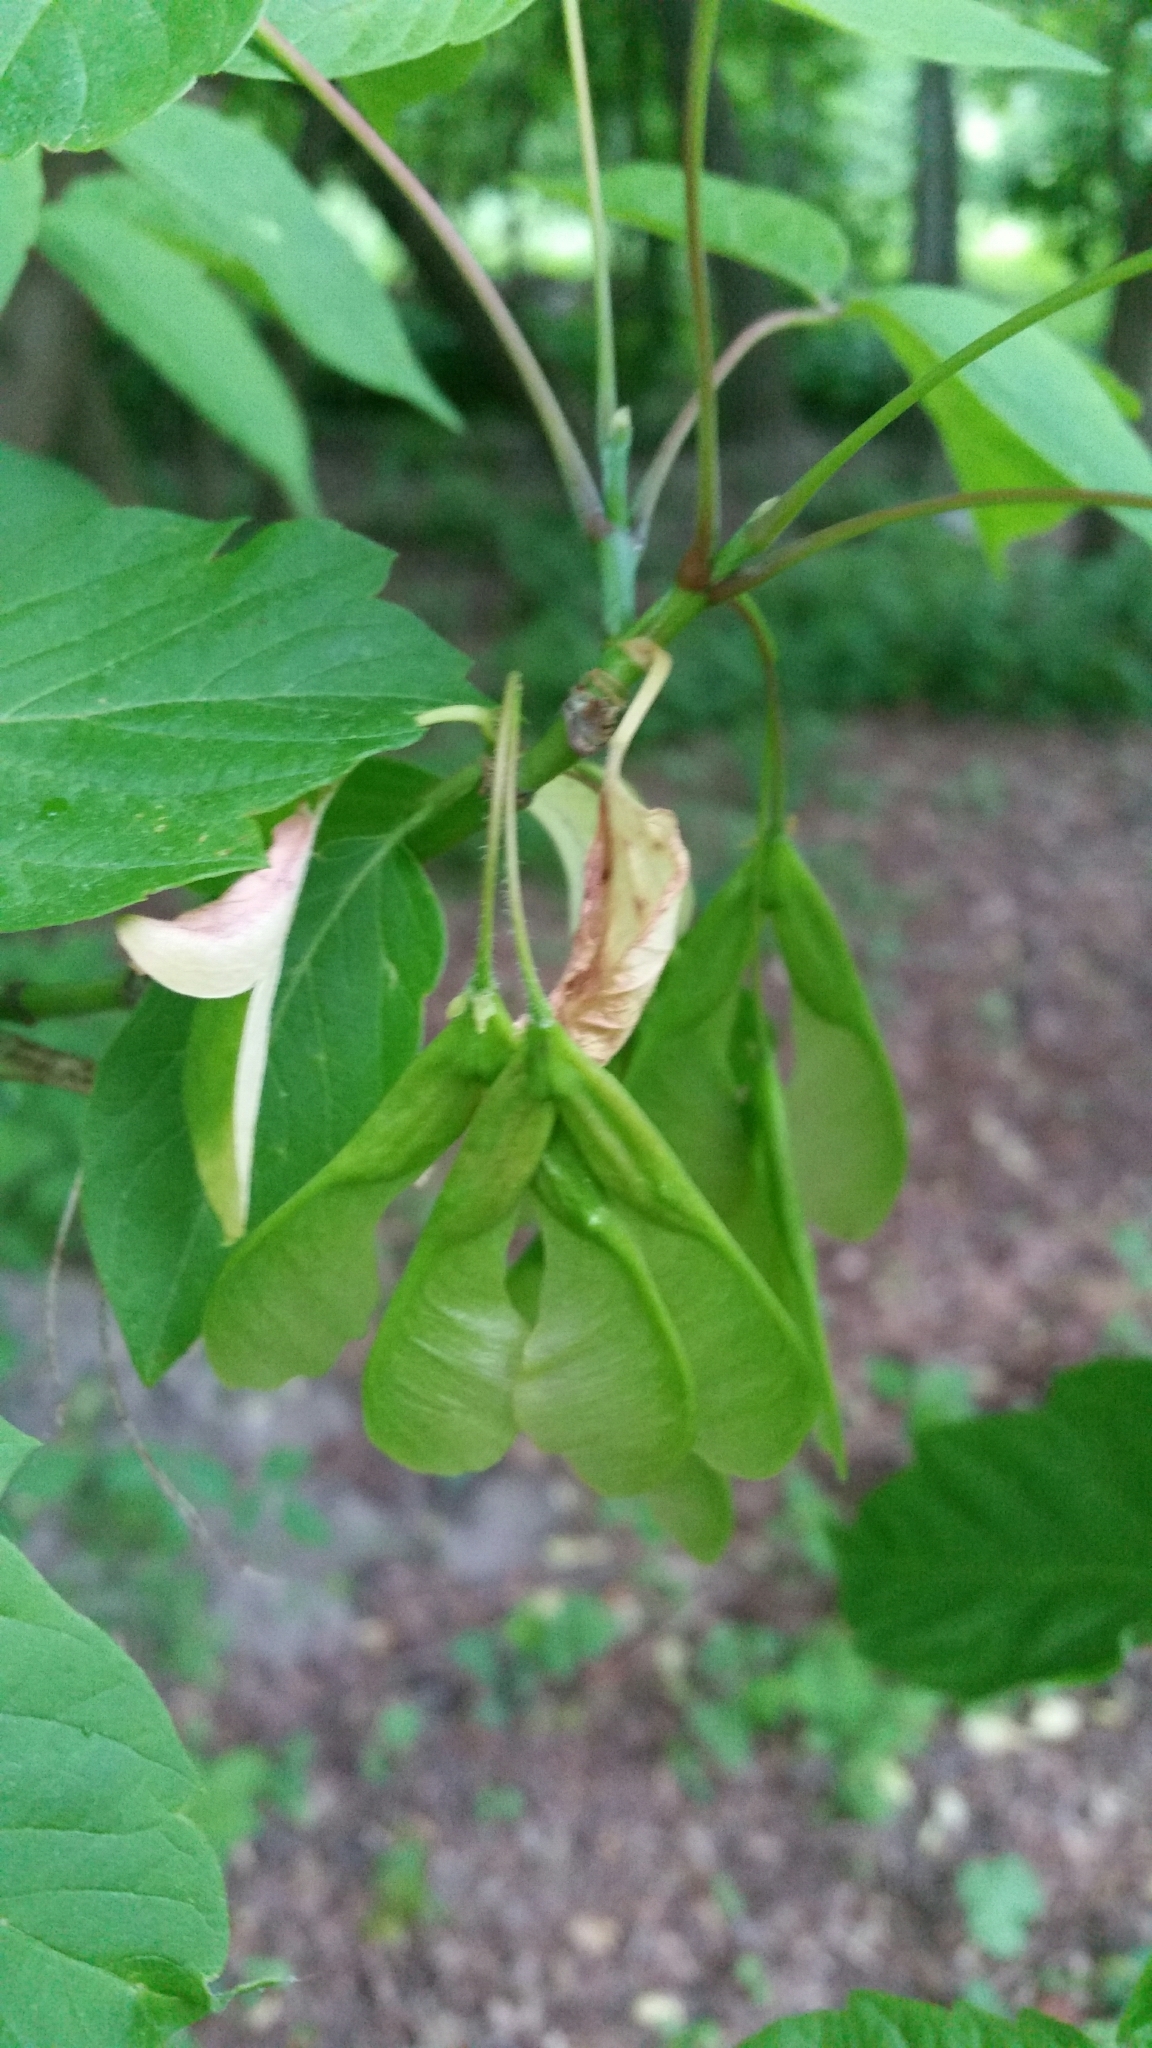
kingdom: Plantae
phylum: Tracheophyta
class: Magnoliopsida
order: Sapindales
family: Sapindaceae
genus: Acer
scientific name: Acer negundo
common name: Ashleaf maple
